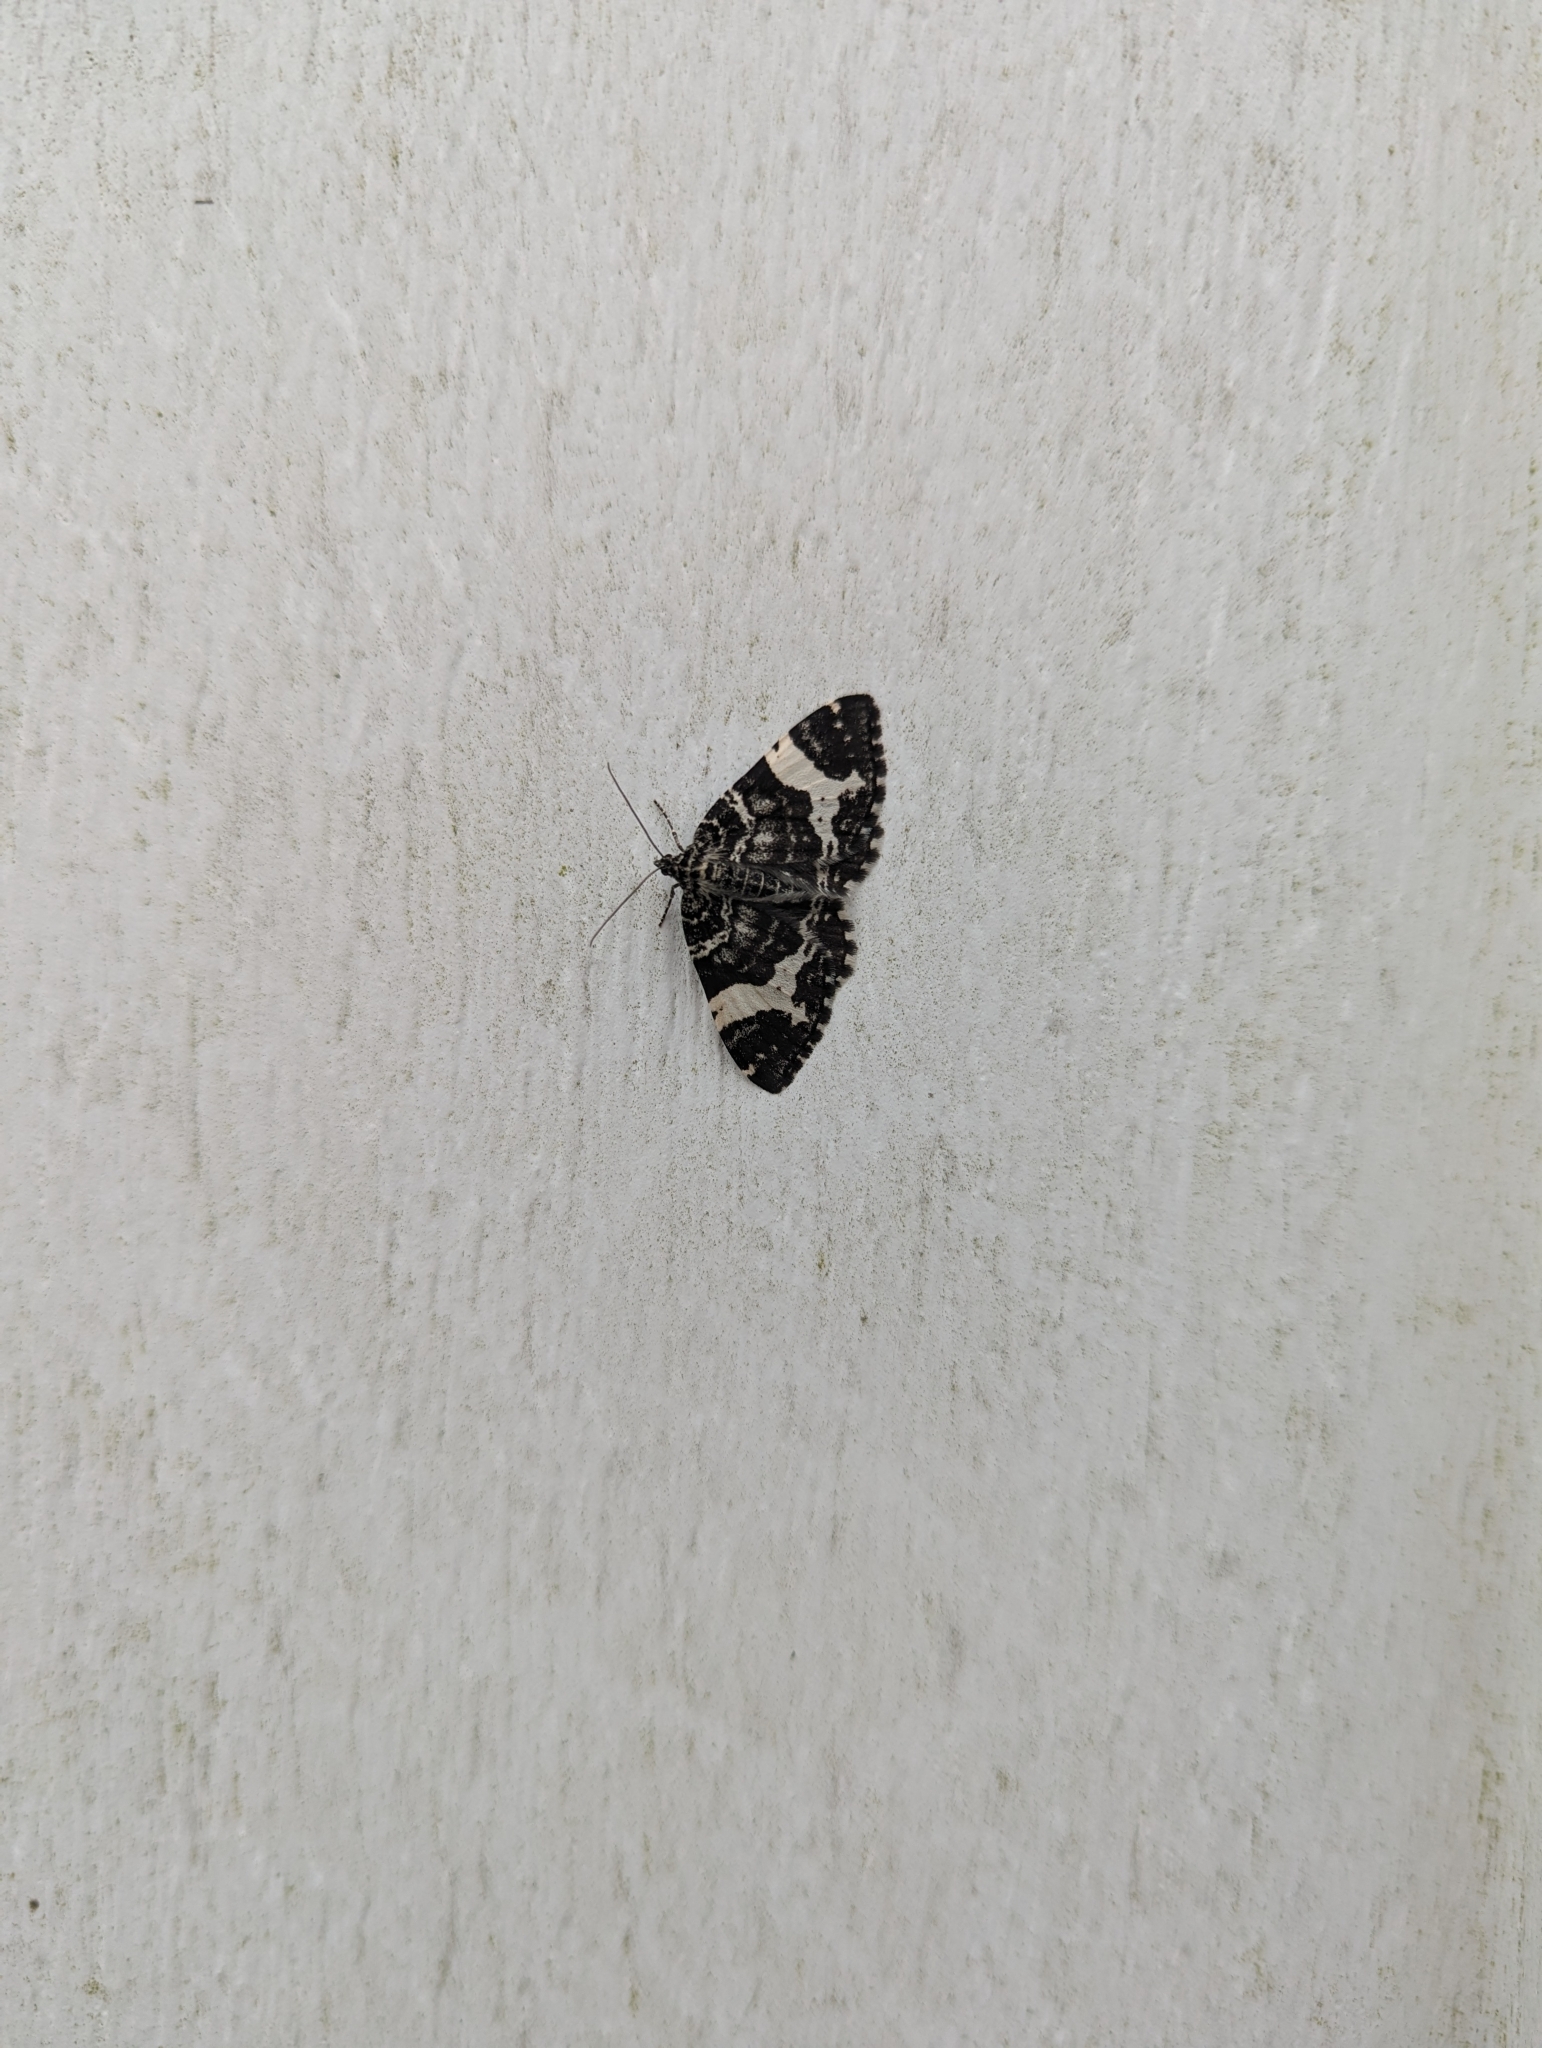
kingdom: Animalia
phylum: Arthropoda
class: Insecta
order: Lepidoptera
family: Geometridae
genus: Rheumaptera
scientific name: Rheumaptera hastata
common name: Argent & sable
